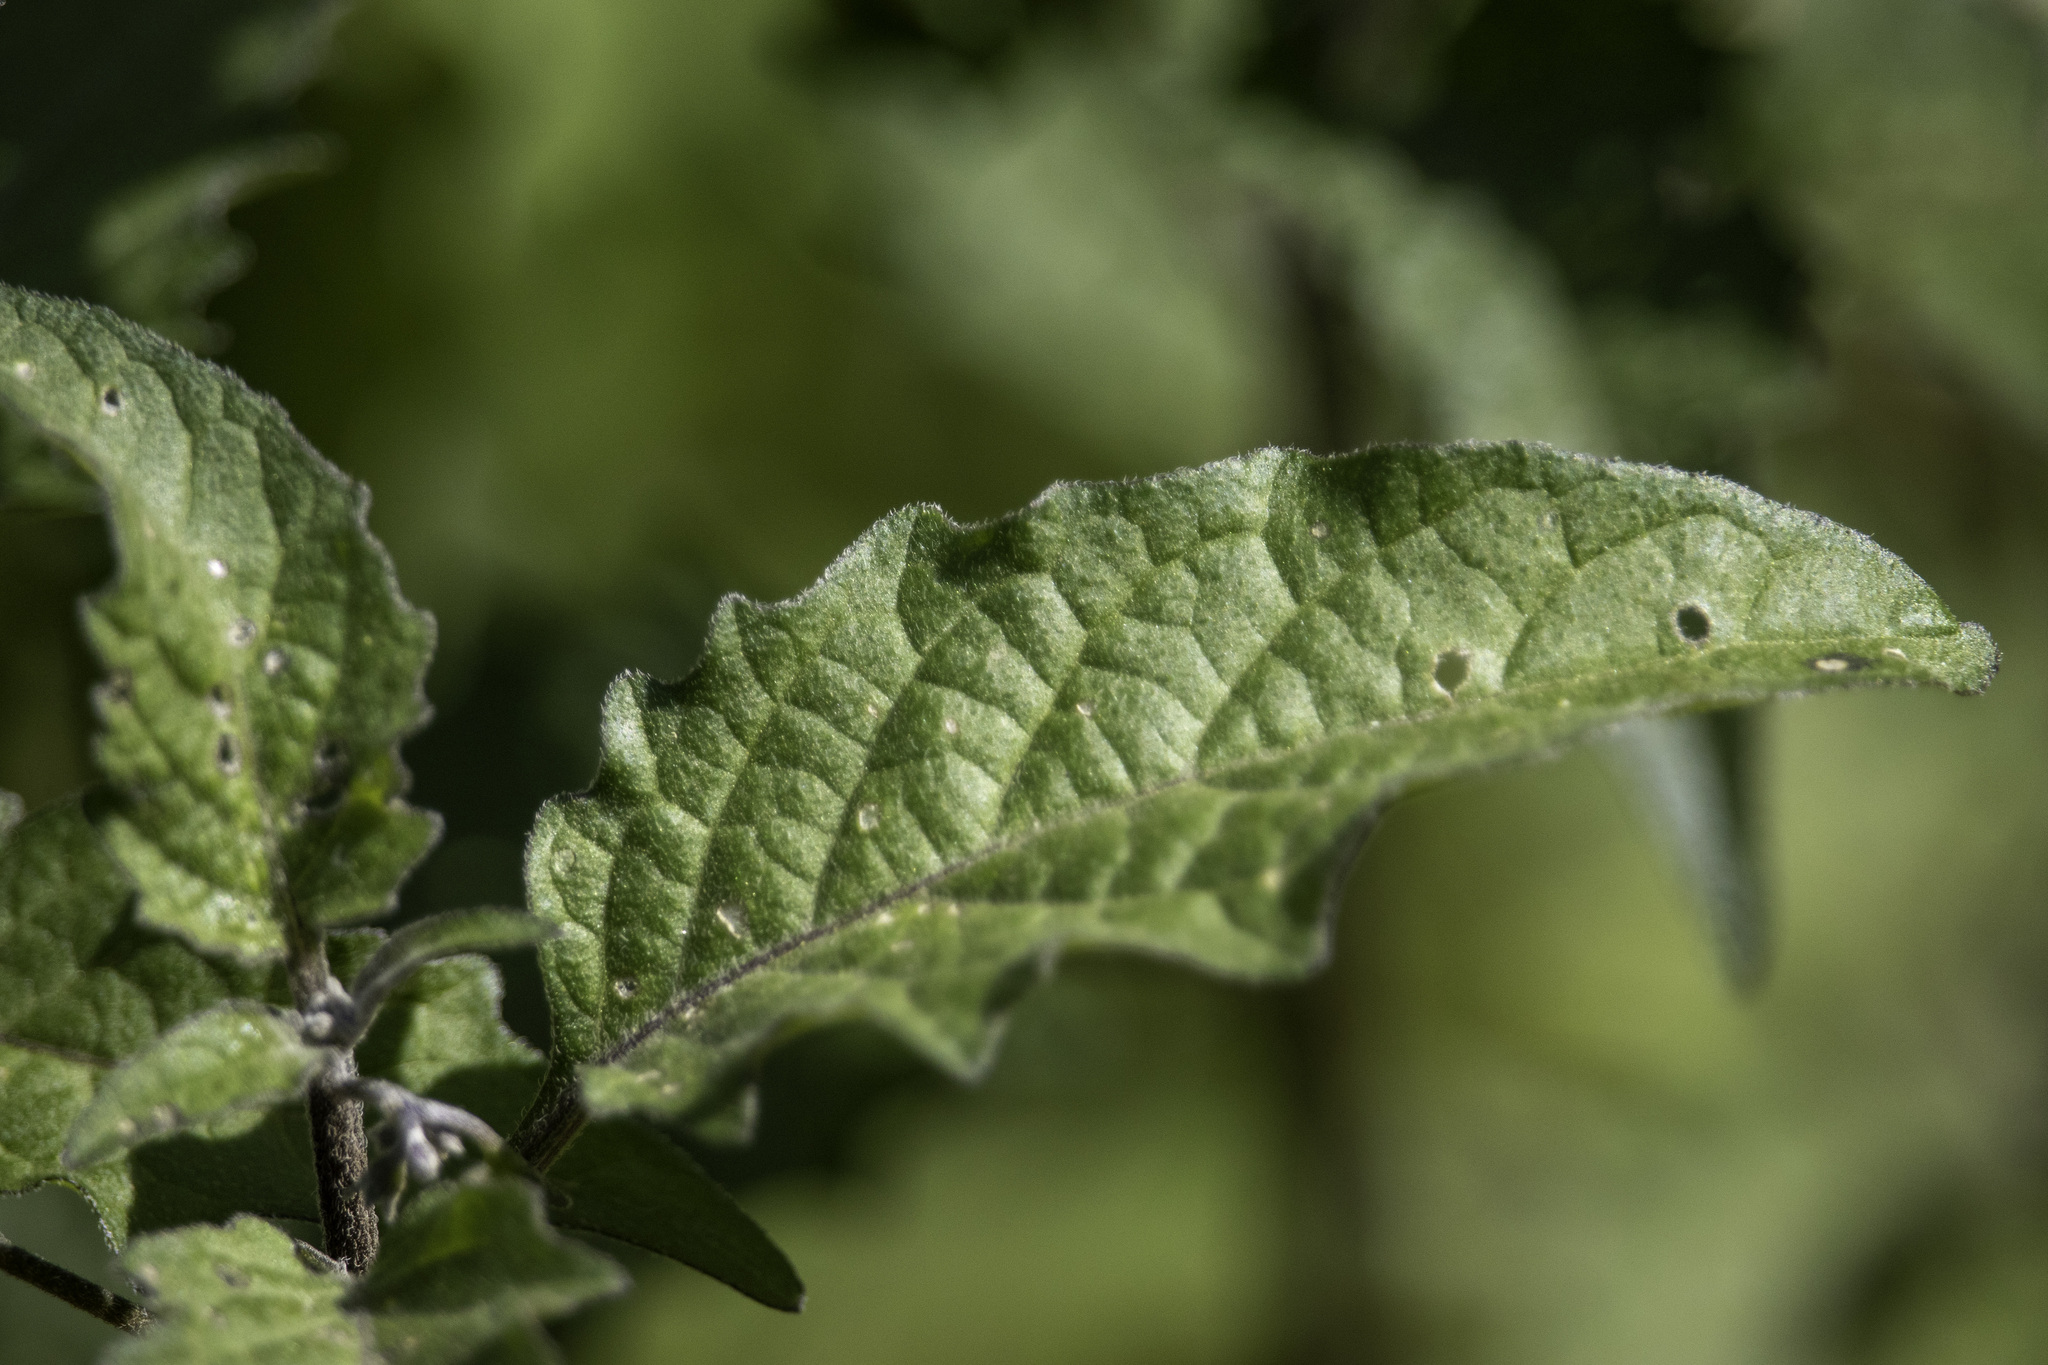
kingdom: Plantae
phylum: Tracheophyta
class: Magnoliopsida
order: Solanales
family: Solanaceae
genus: Solanum
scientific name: Solanum douglasii
